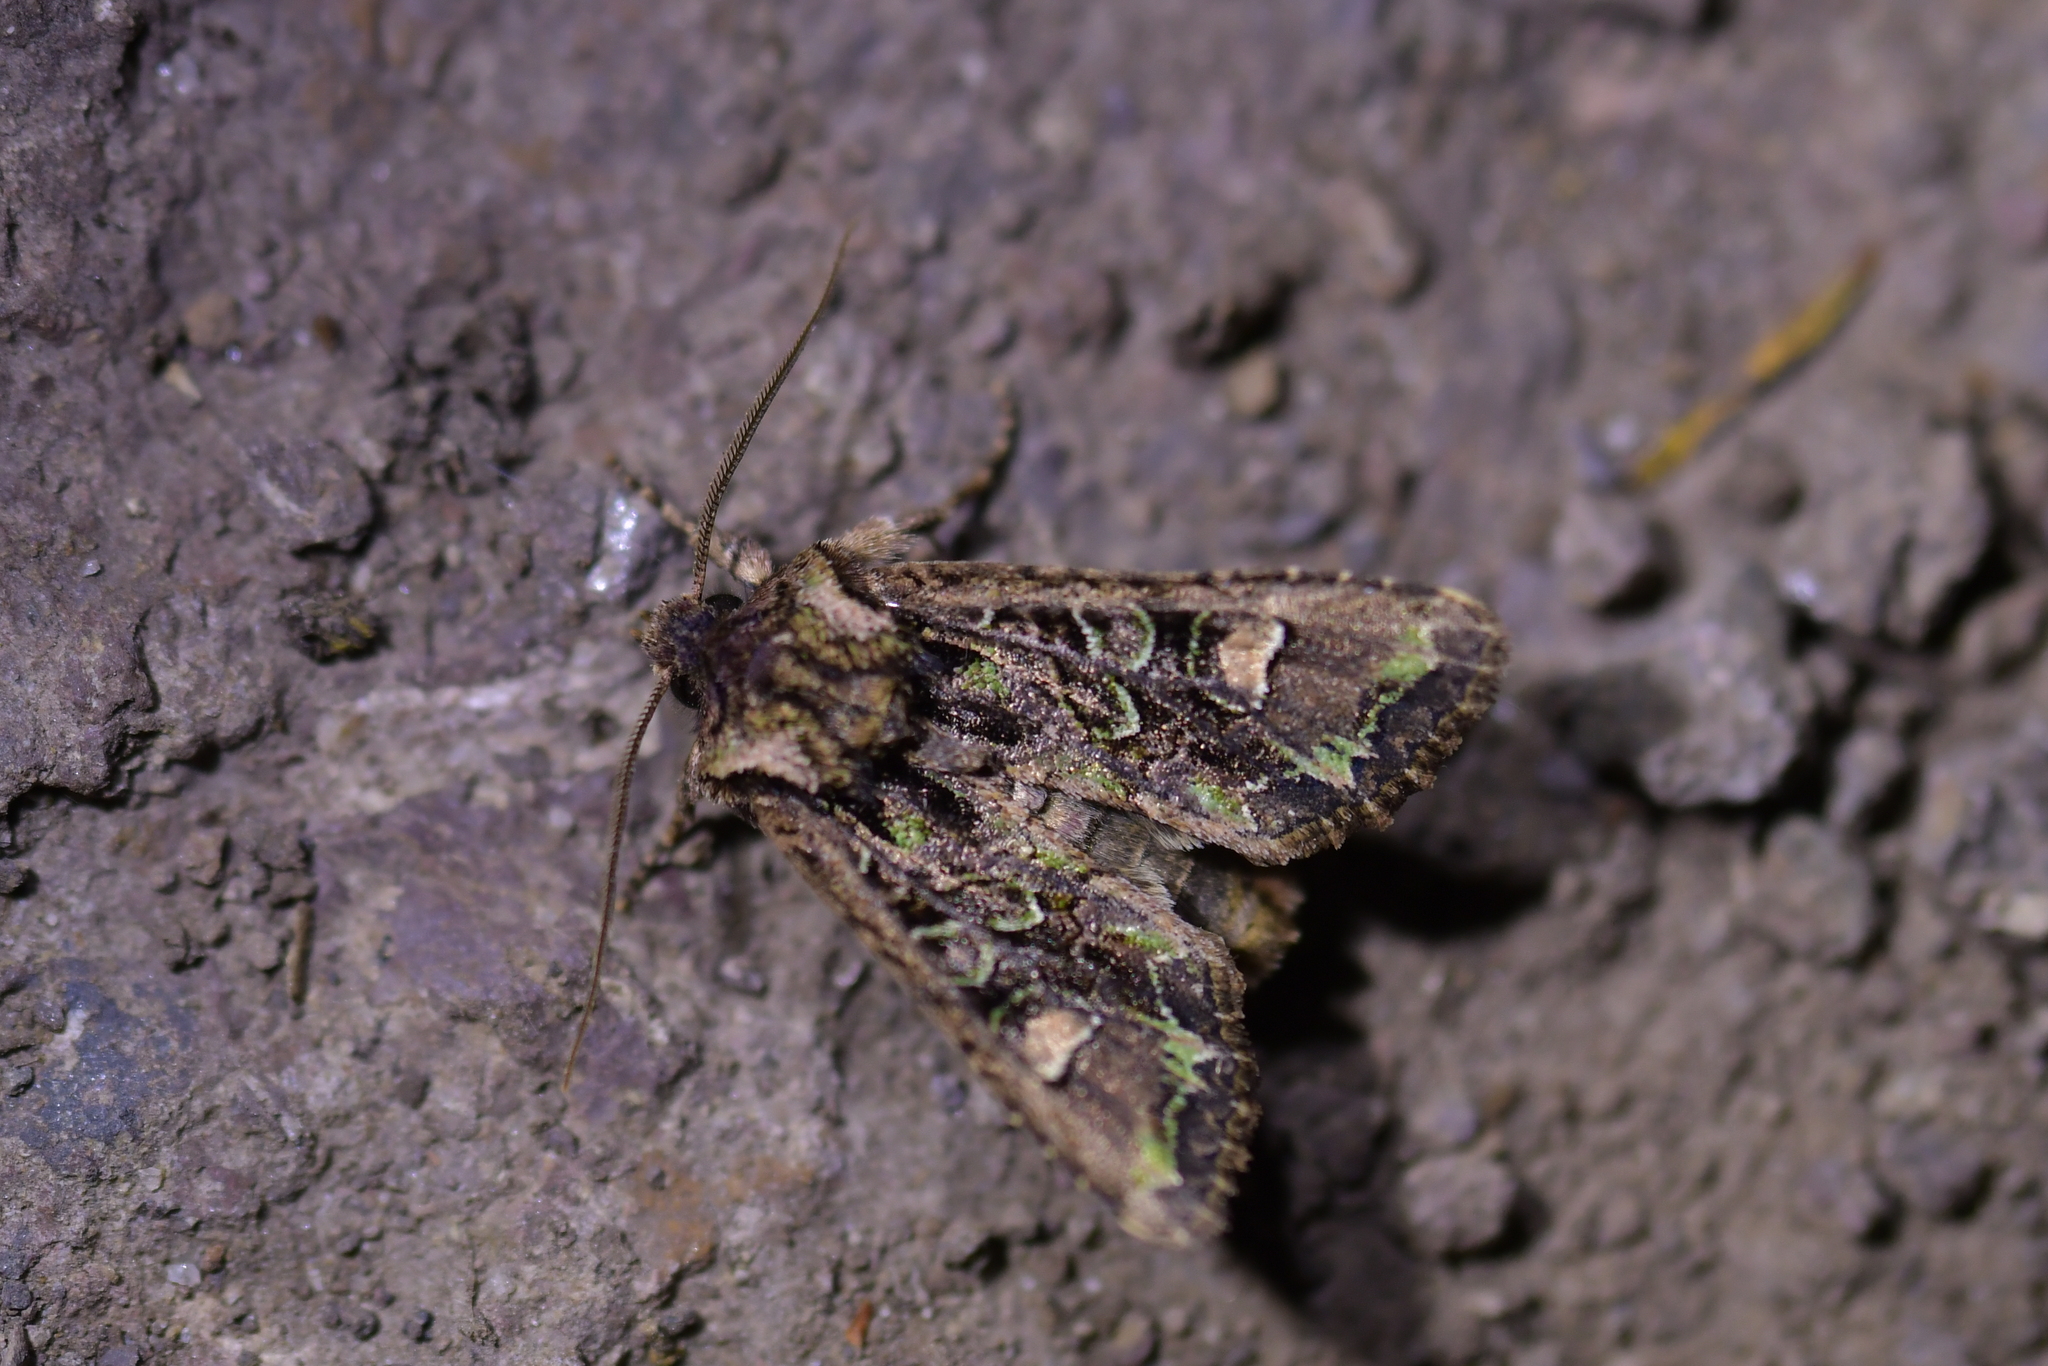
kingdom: Animalia
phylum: Arthropoda
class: Insecta
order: Lepidoptera
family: Noctuidae
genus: Ichneutica
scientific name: Ichneutica insignis
